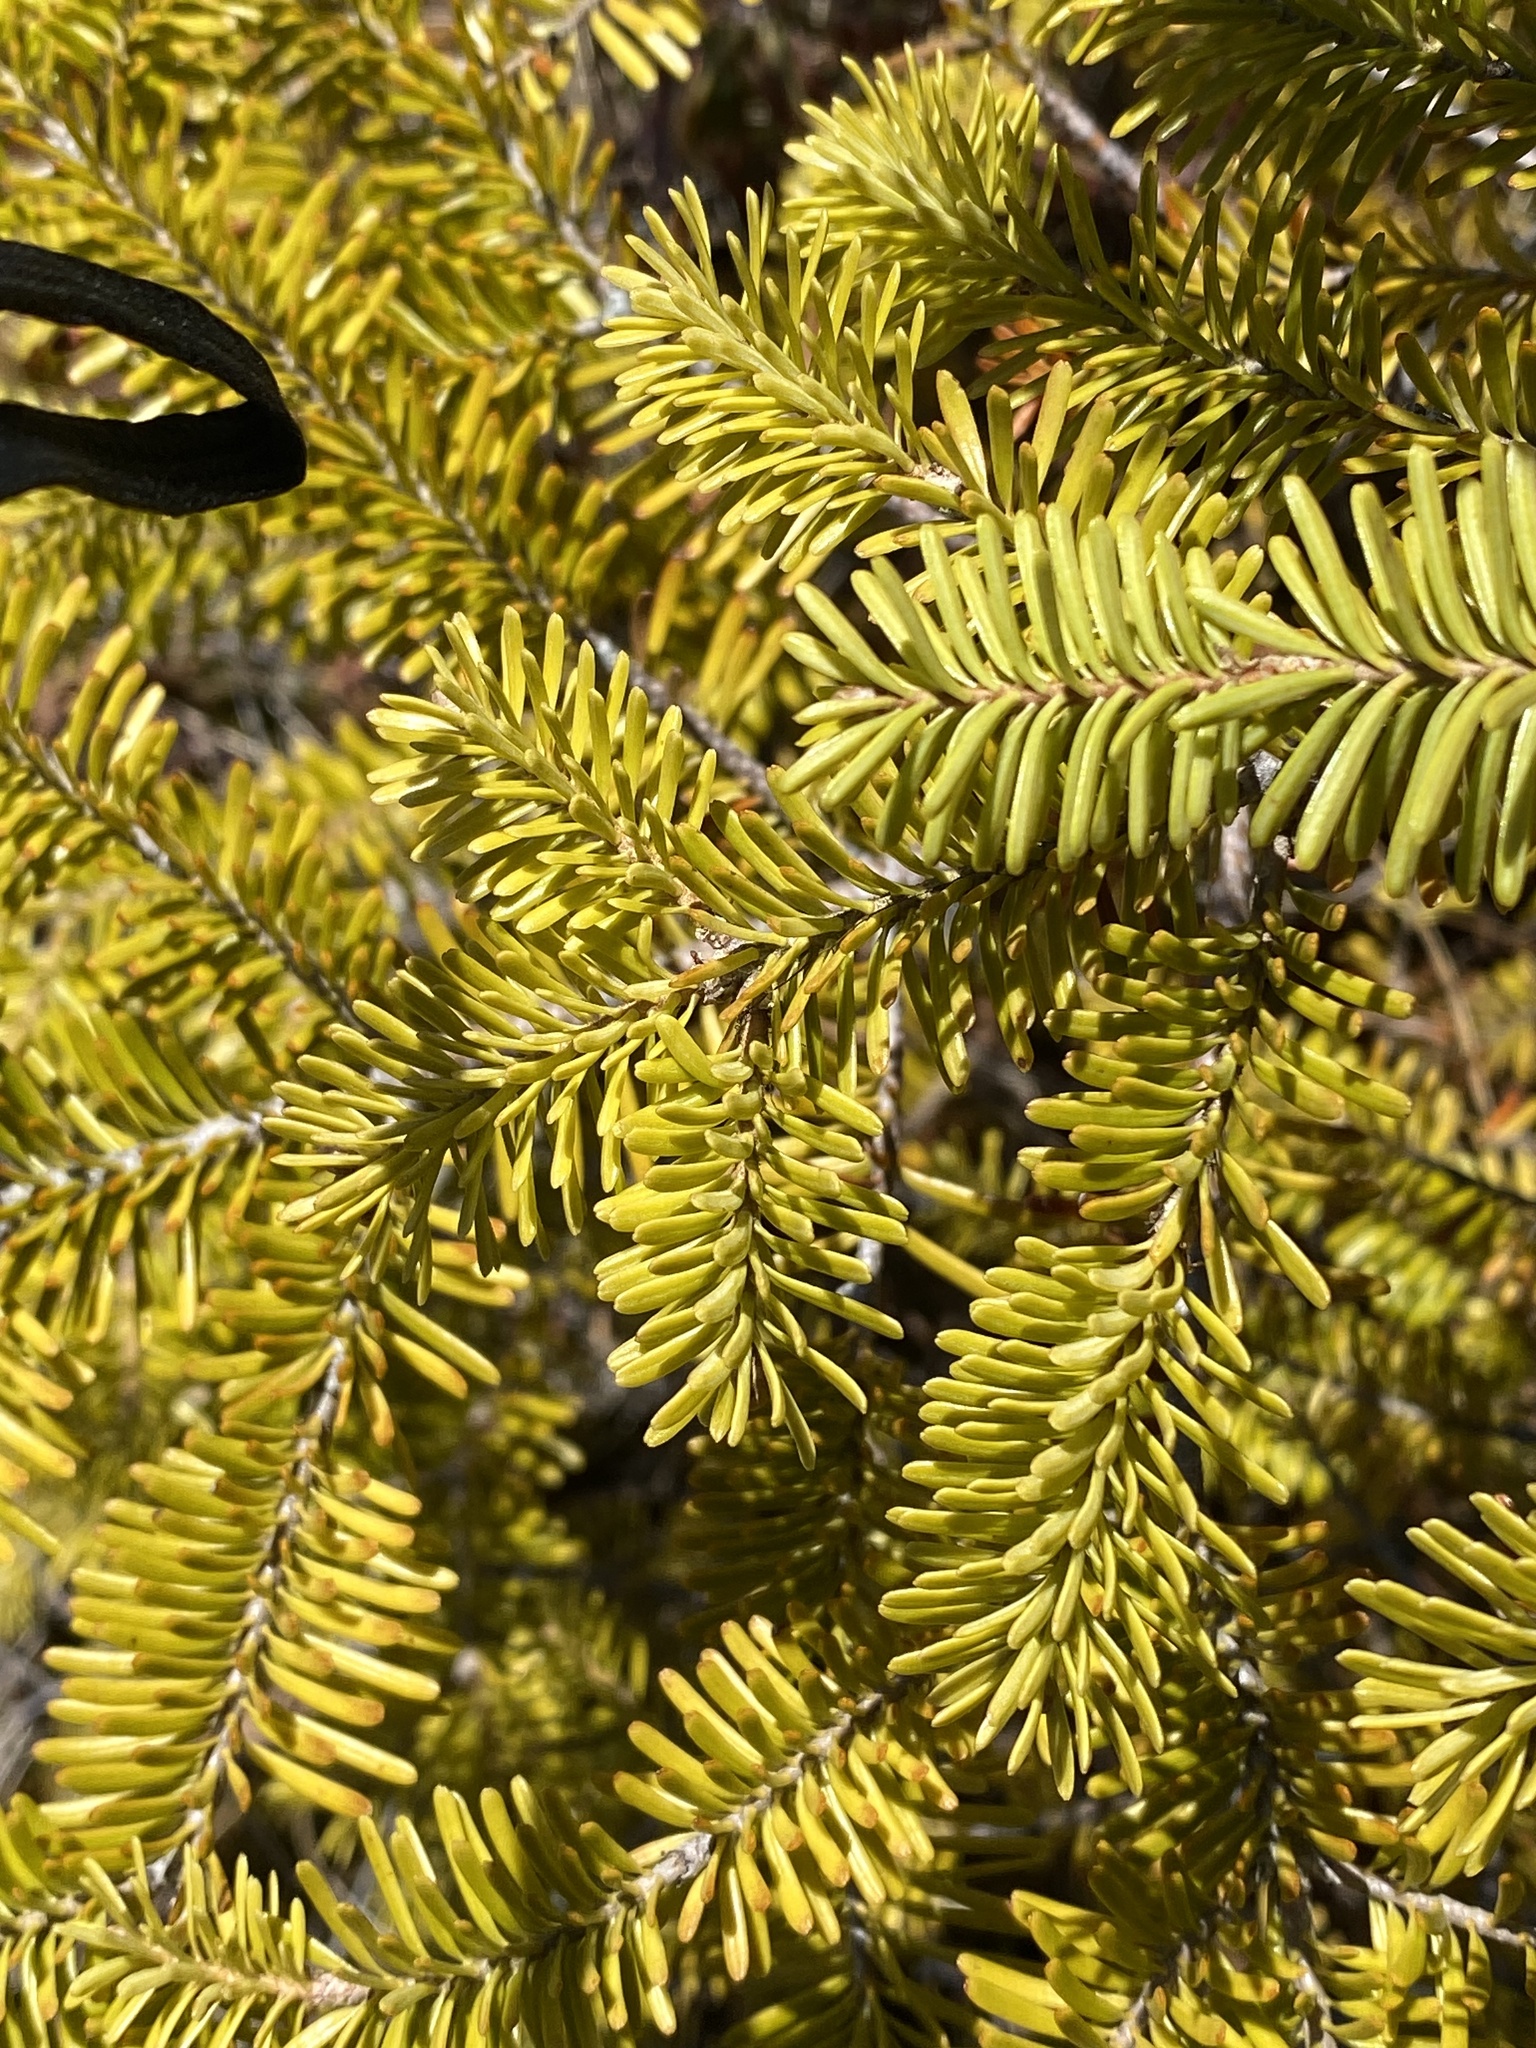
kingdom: Plantae
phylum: Tracheophyta
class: Pinopsida
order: Pinales
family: Pinaceae
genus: Abies
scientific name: Abies balsamea
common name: Balsam fir
